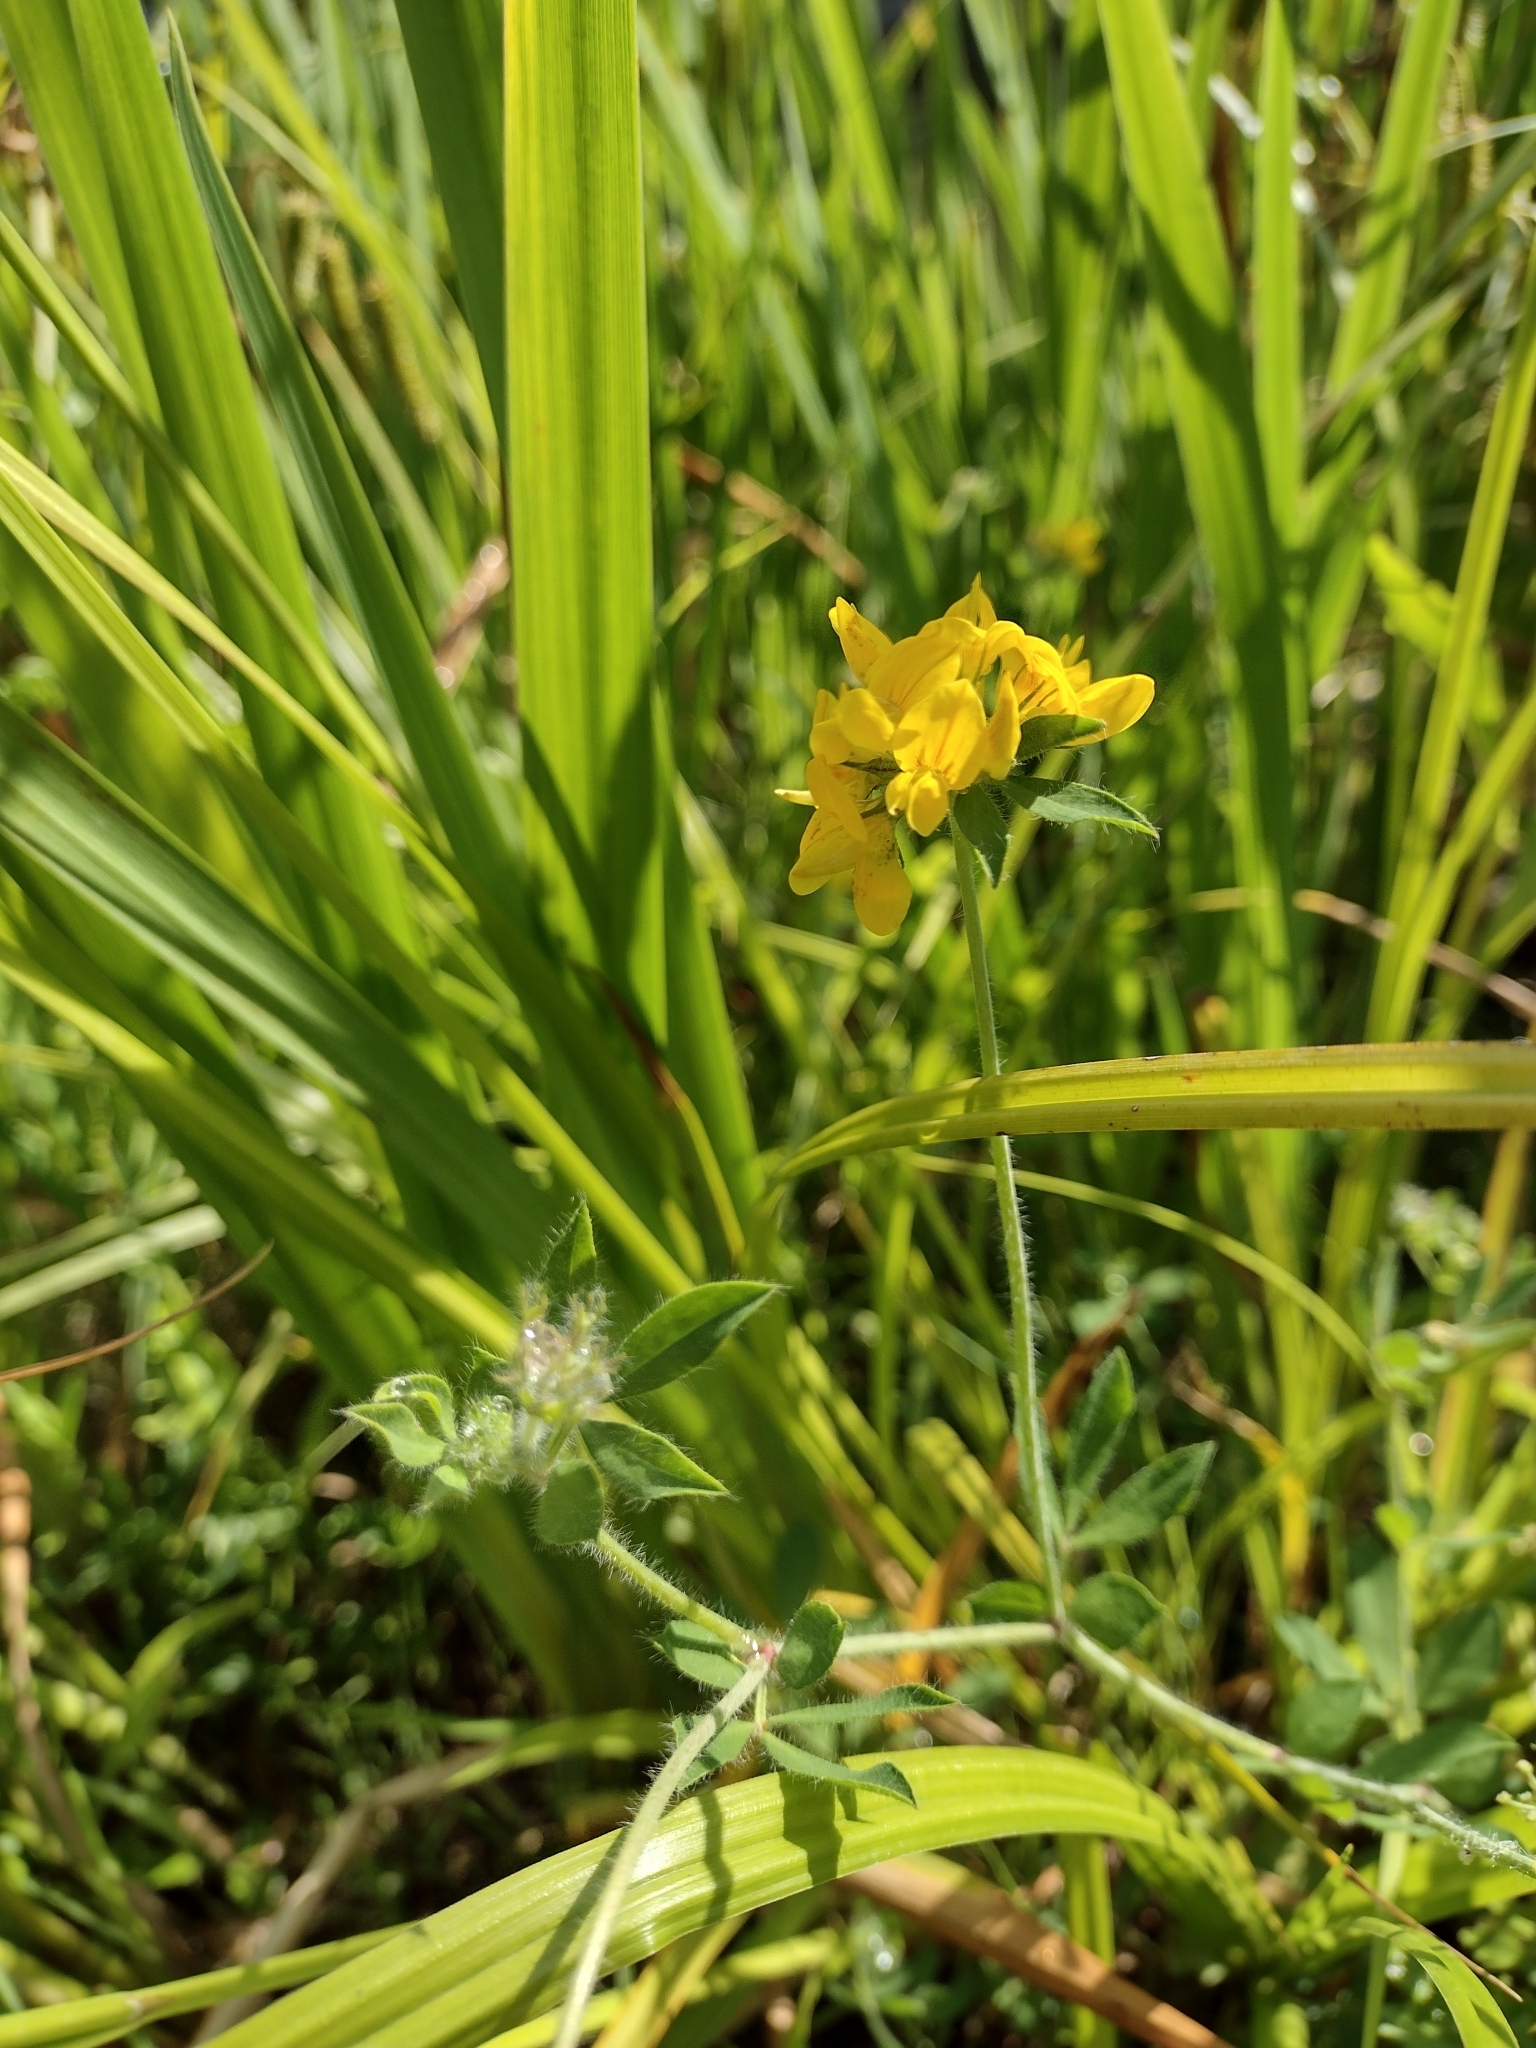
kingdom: Plantae
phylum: Tracheophyta
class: Magnoliopsida
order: Fabales
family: Fabaceae
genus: Lotus
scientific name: Lotus pedunculatus
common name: Greater birdsfoot-trefoil
